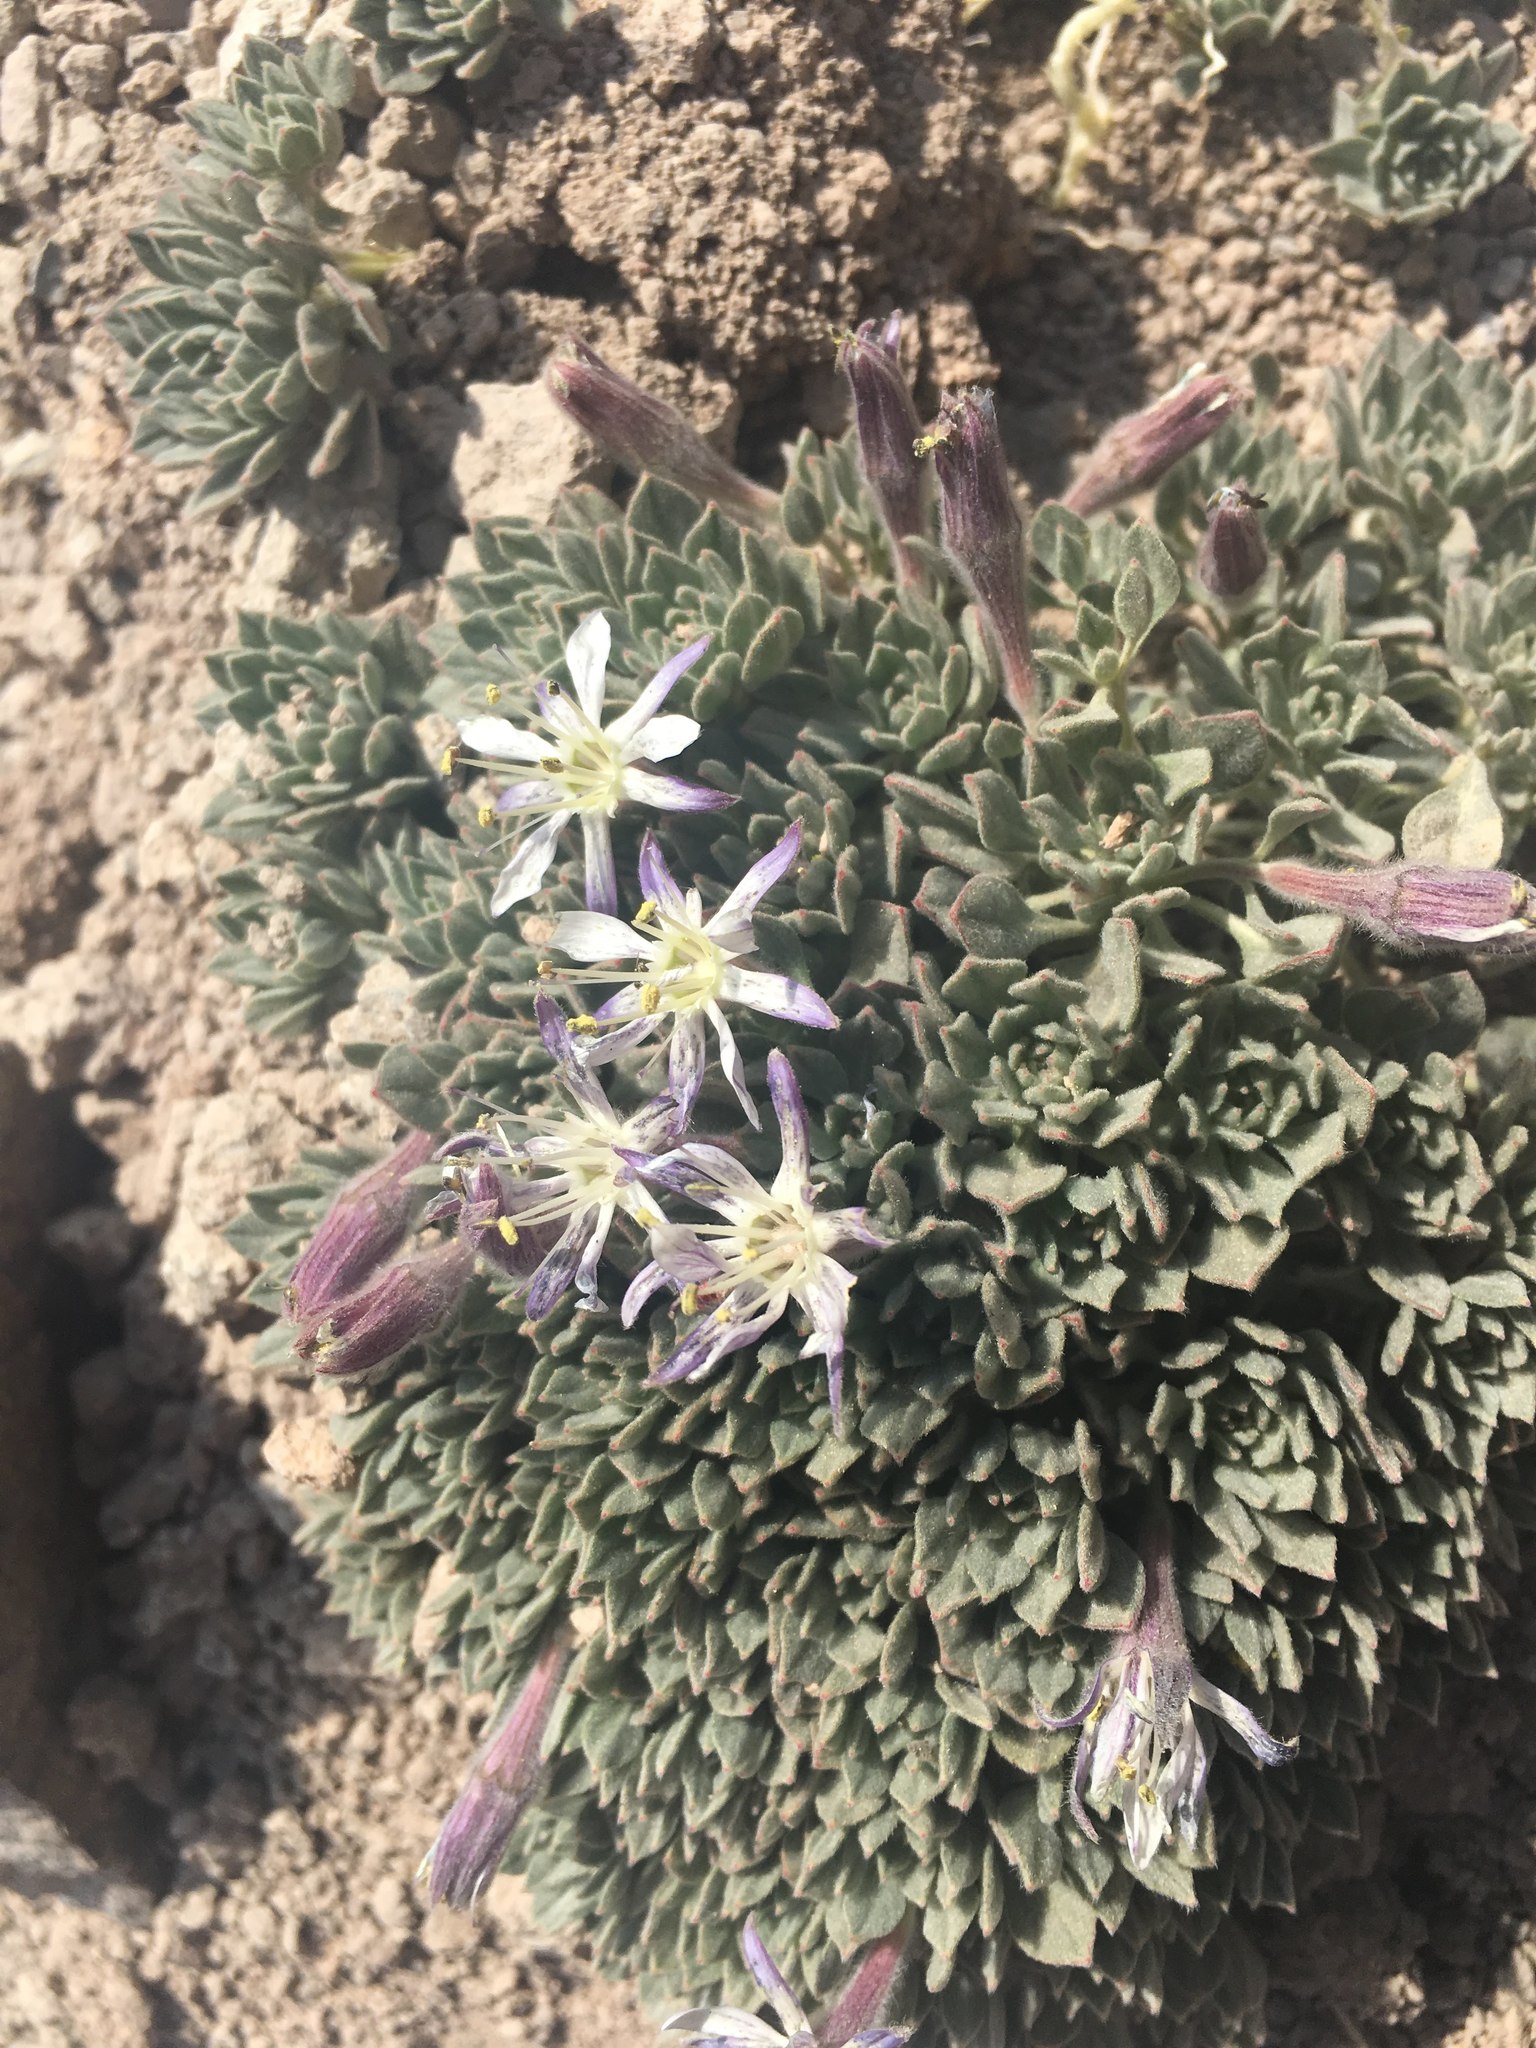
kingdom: Plantae
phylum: Tracheophyta
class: Magnoliopsida
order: Malpighiales
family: Malesherbiaceae
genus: Malesherbia
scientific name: Malesherbia lactea
